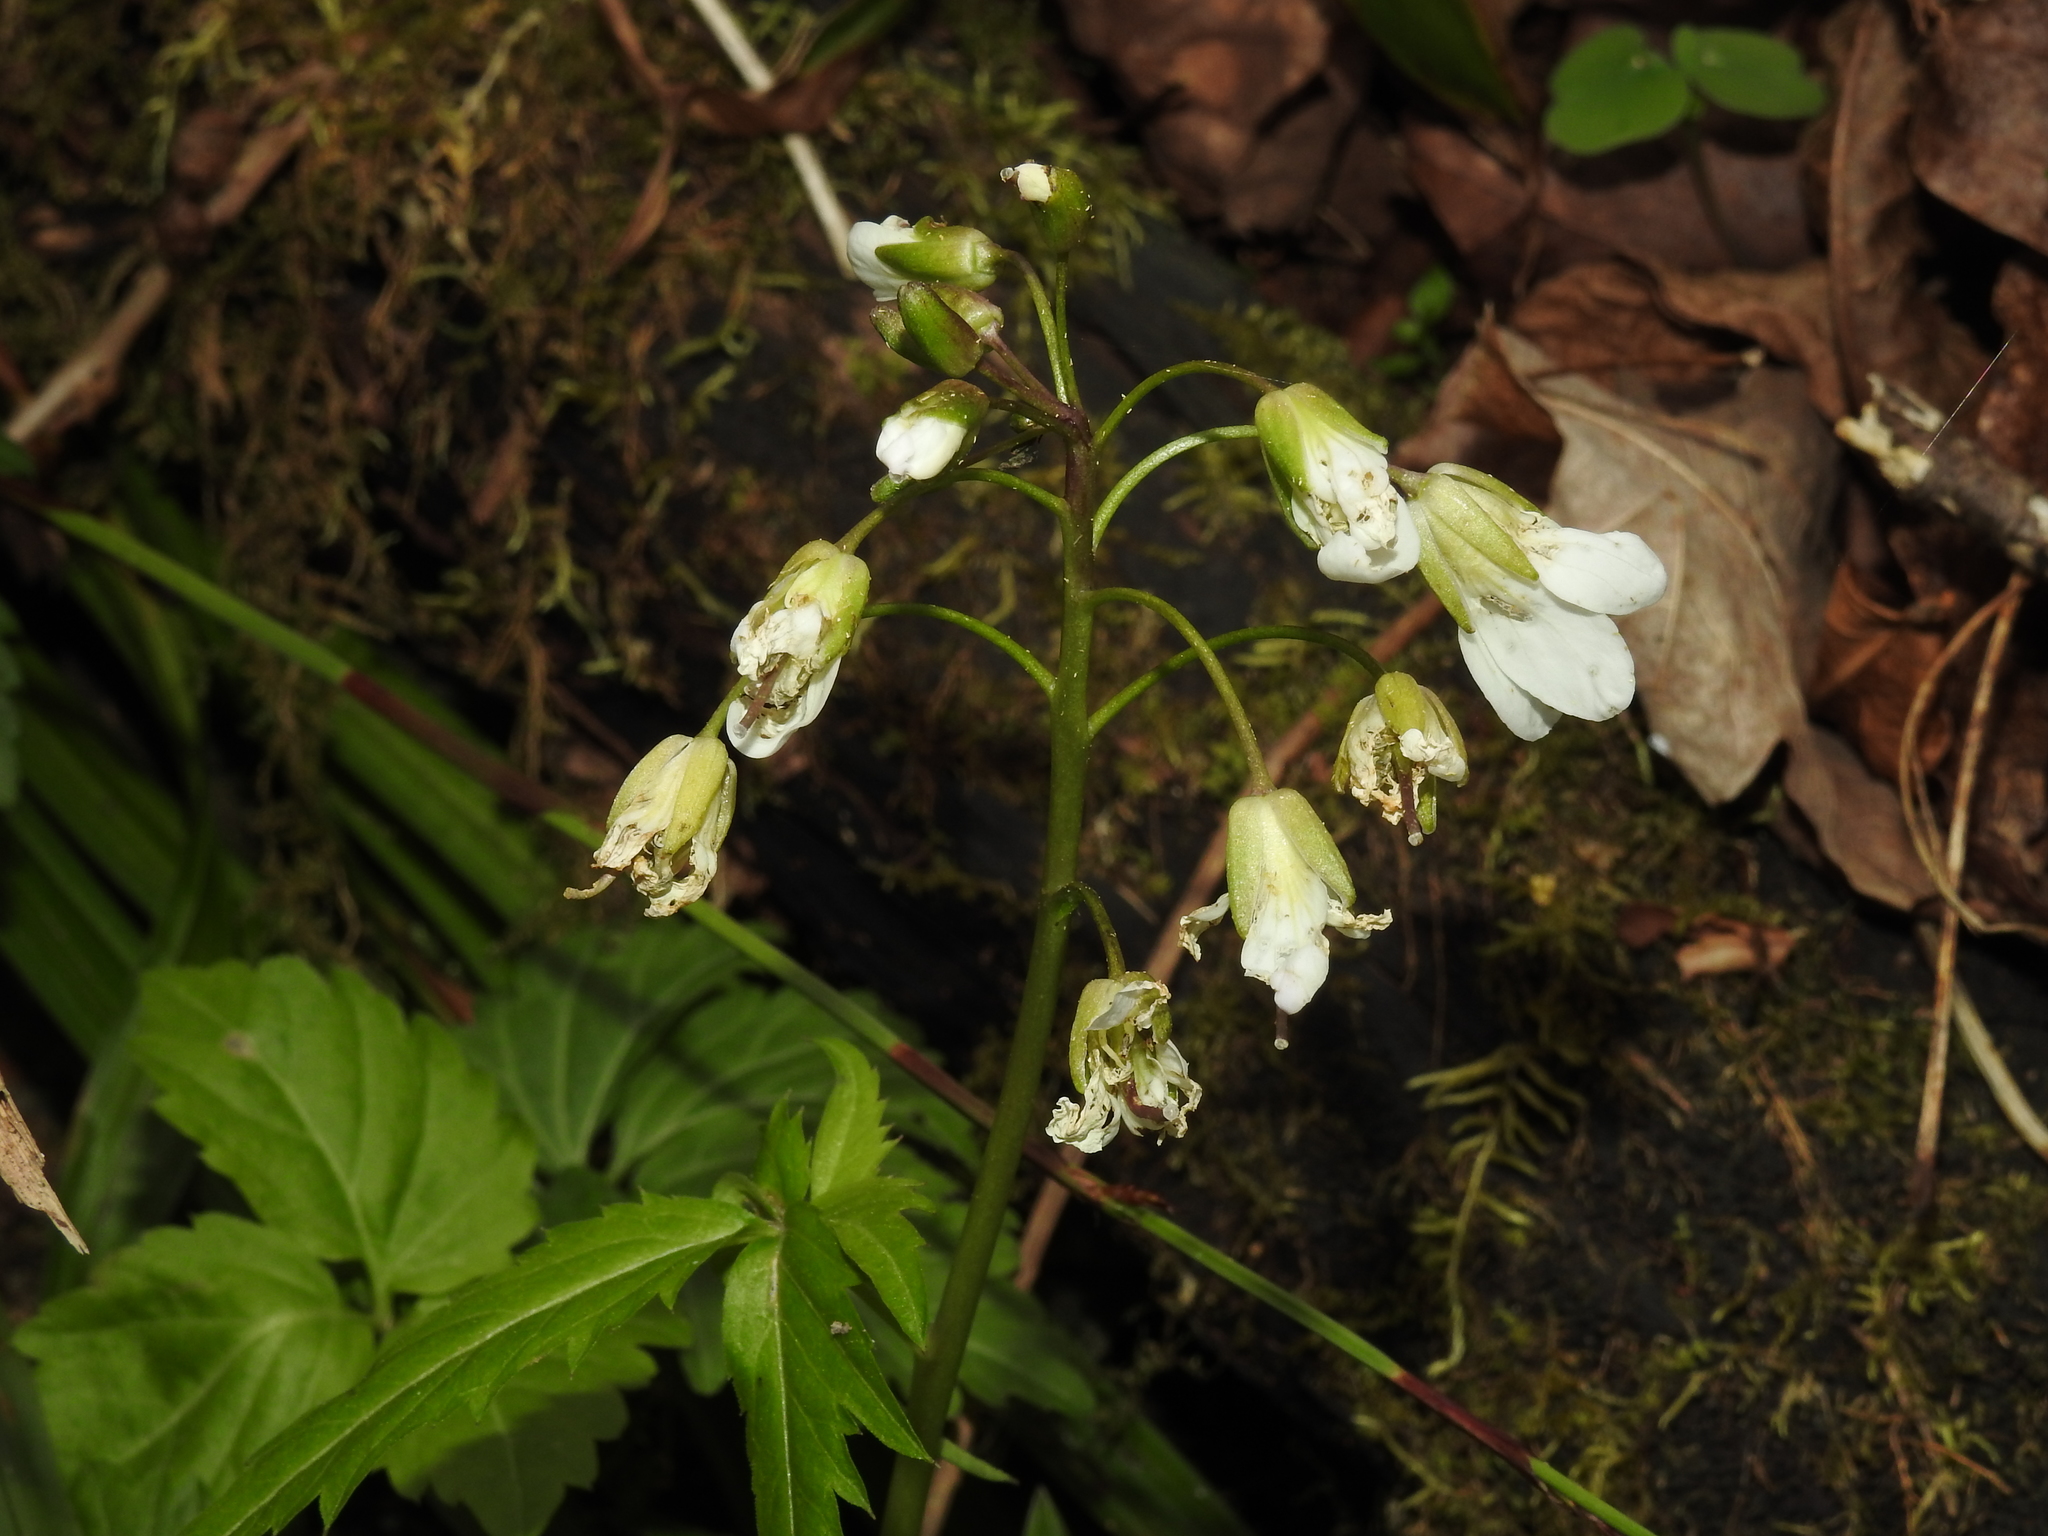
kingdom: Plantae
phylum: Tracheophyta
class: Magnoliopsida
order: Brassicales
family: Brassicaceae
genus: Cardamine
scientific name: Cardamine diphylla
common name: Broad-leaved toothwort
